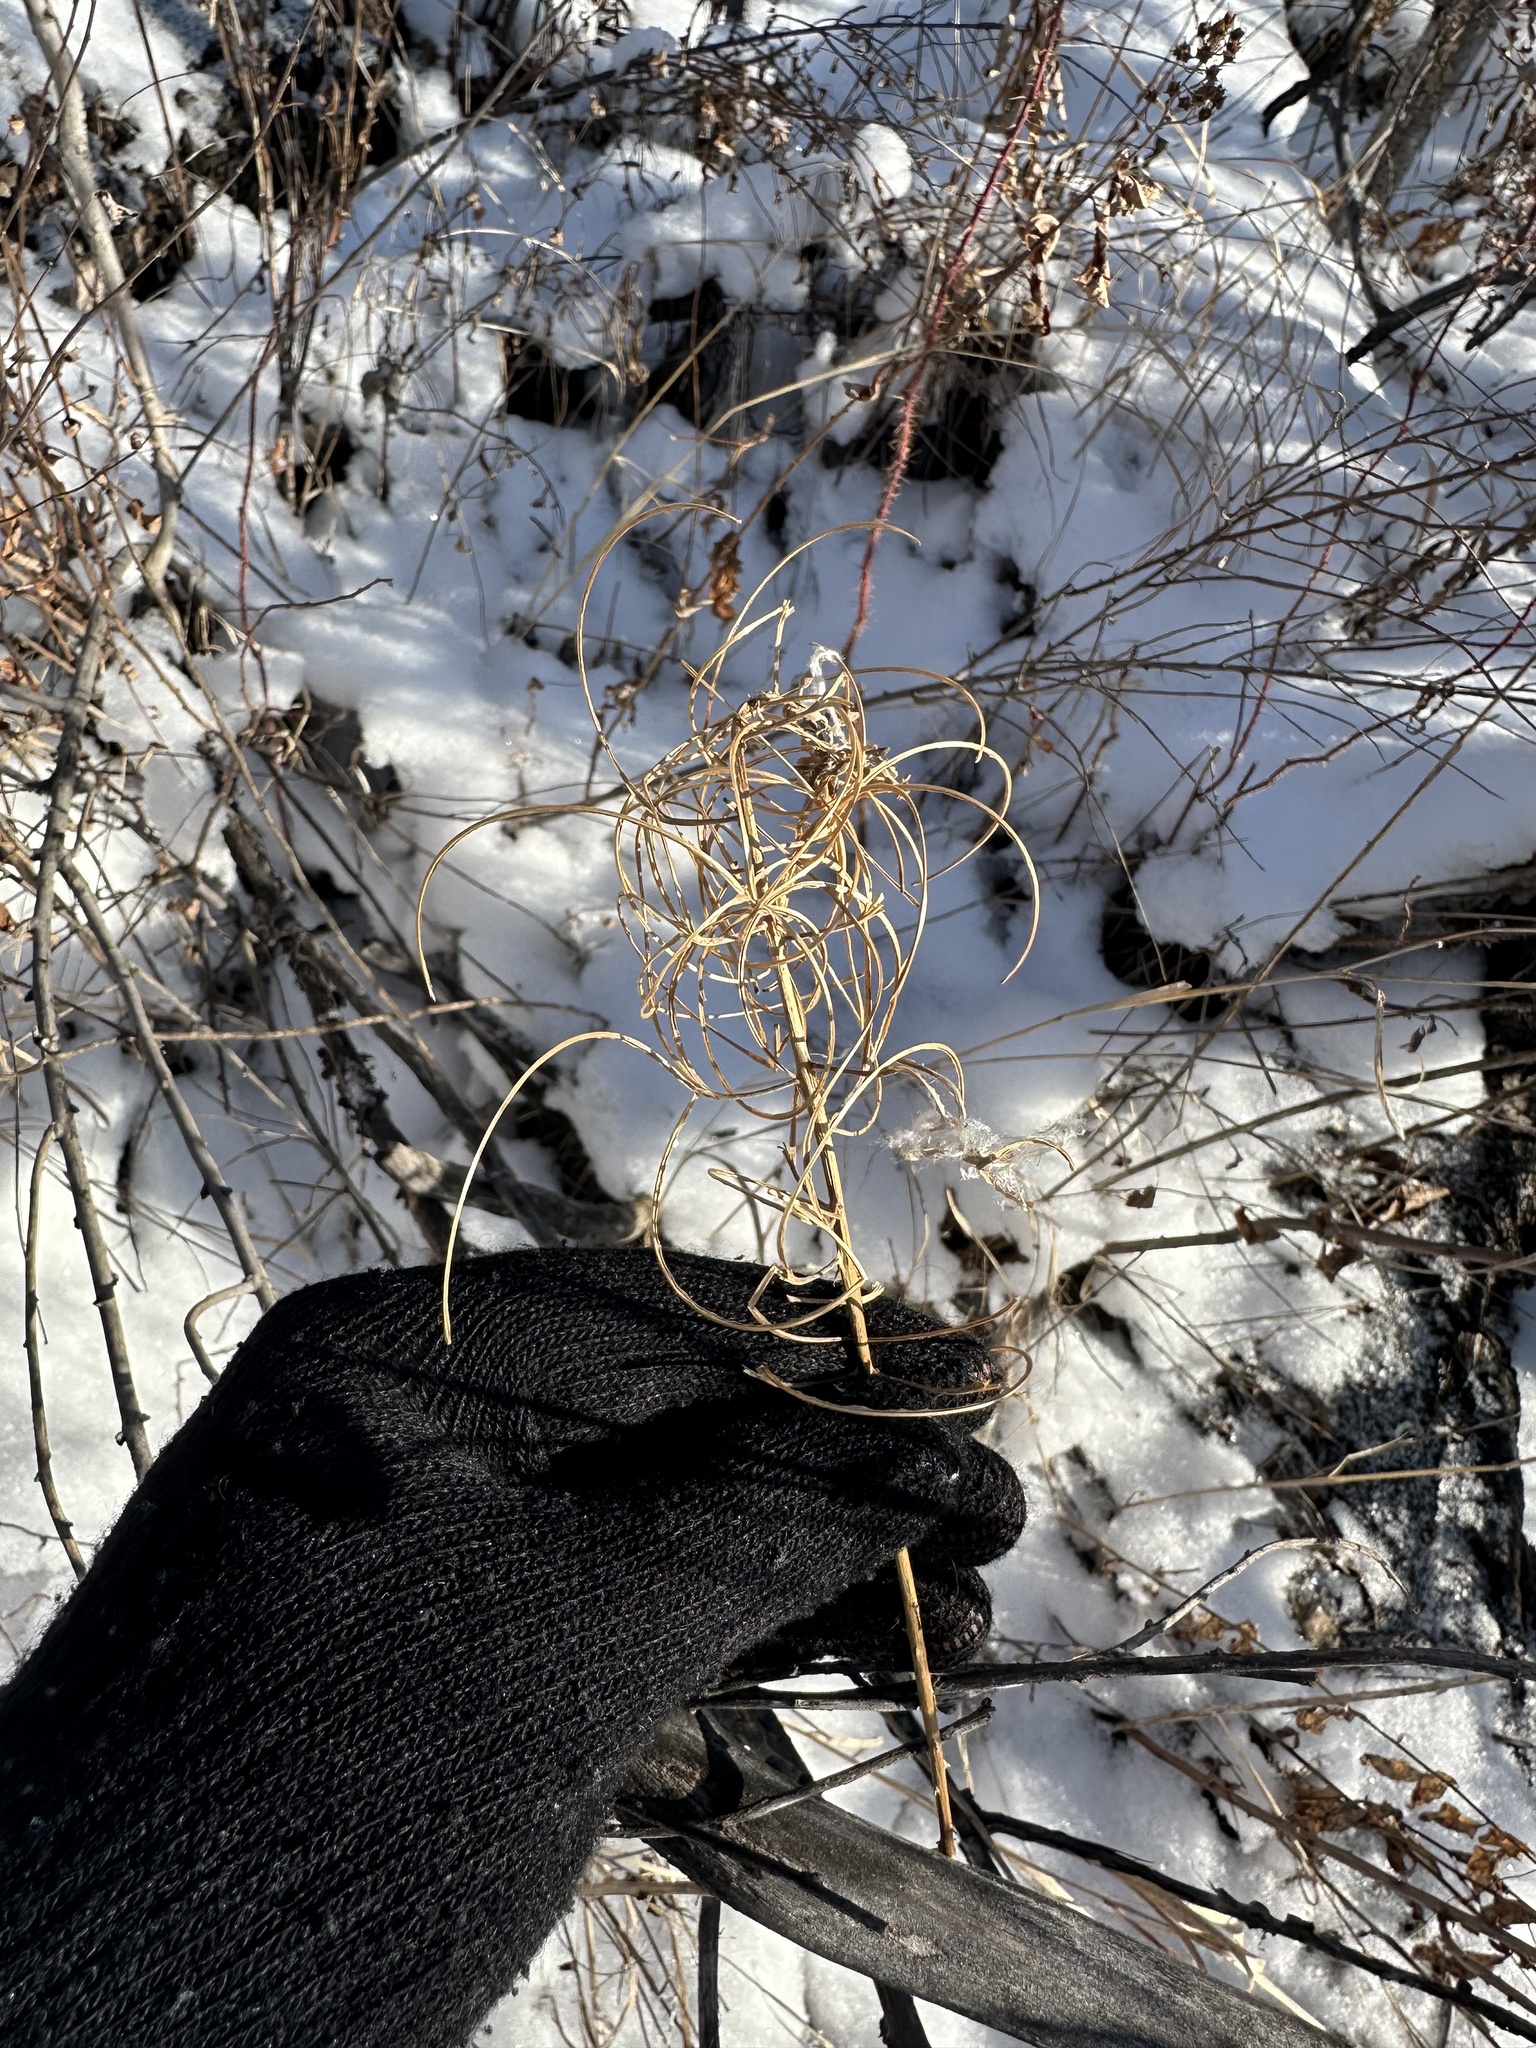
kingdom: Plantae
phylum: Tracheophyta
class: Magnoliopsida
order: Myrtales
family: Onagraceae
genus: Chamaenerion
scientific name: Chamaenerion angustifolium
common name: Fireweed
